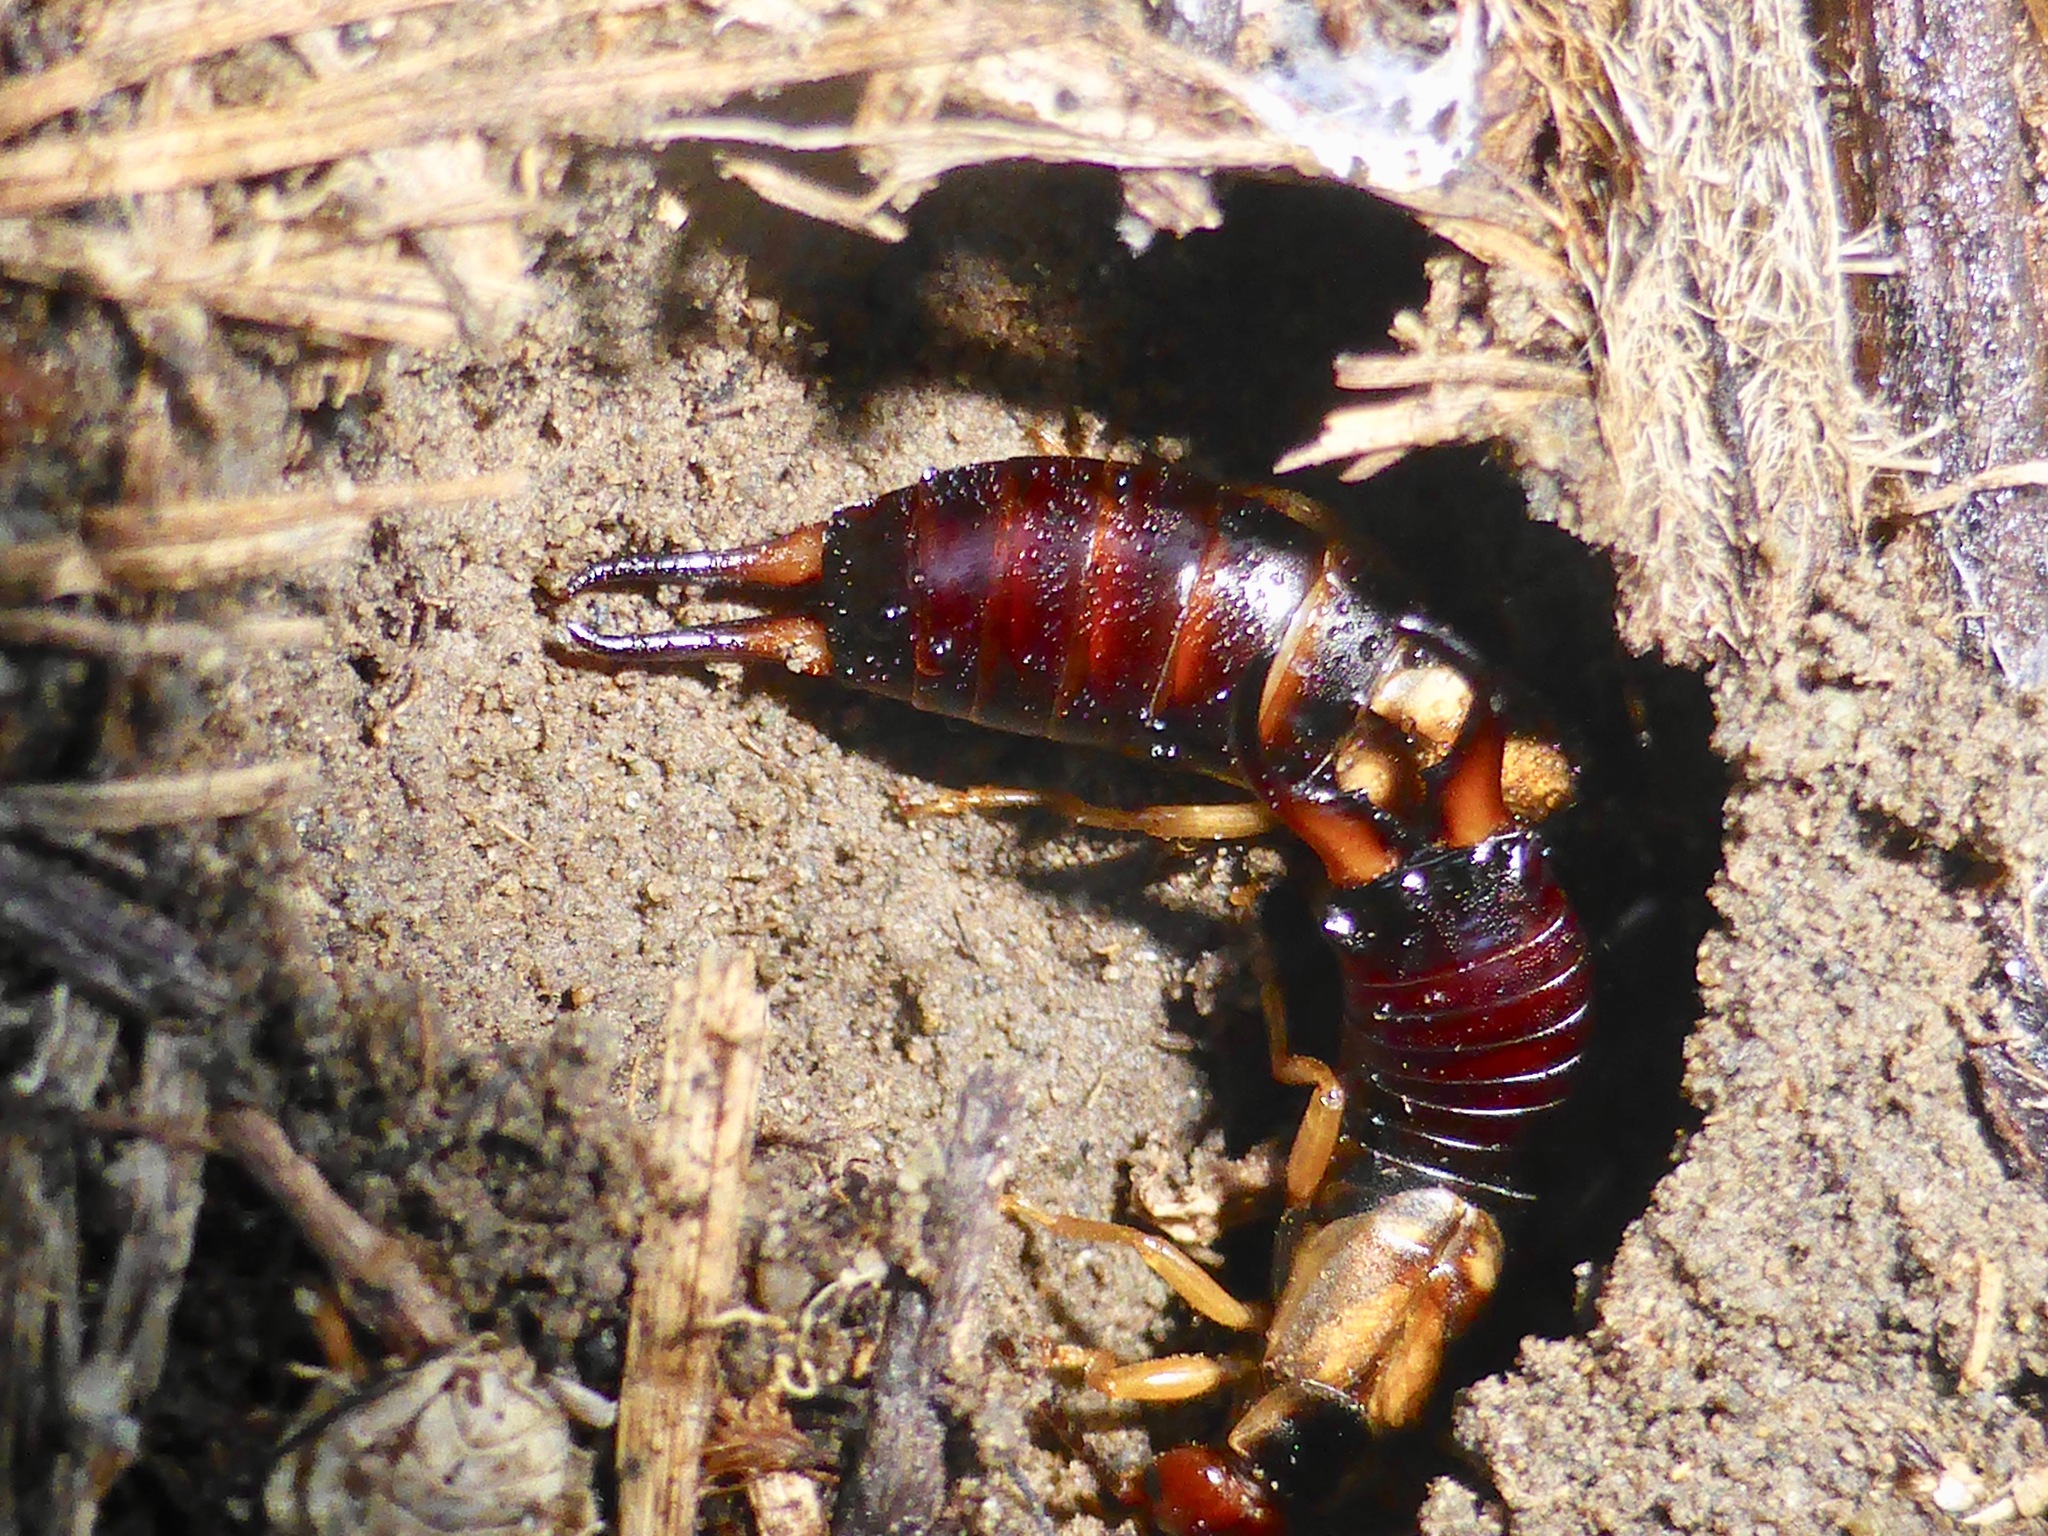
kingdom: Animalia
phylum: Arthropoda
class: Insecta
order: Dermaptera
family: Forficulidae
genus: Forficula
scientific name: Forficula
